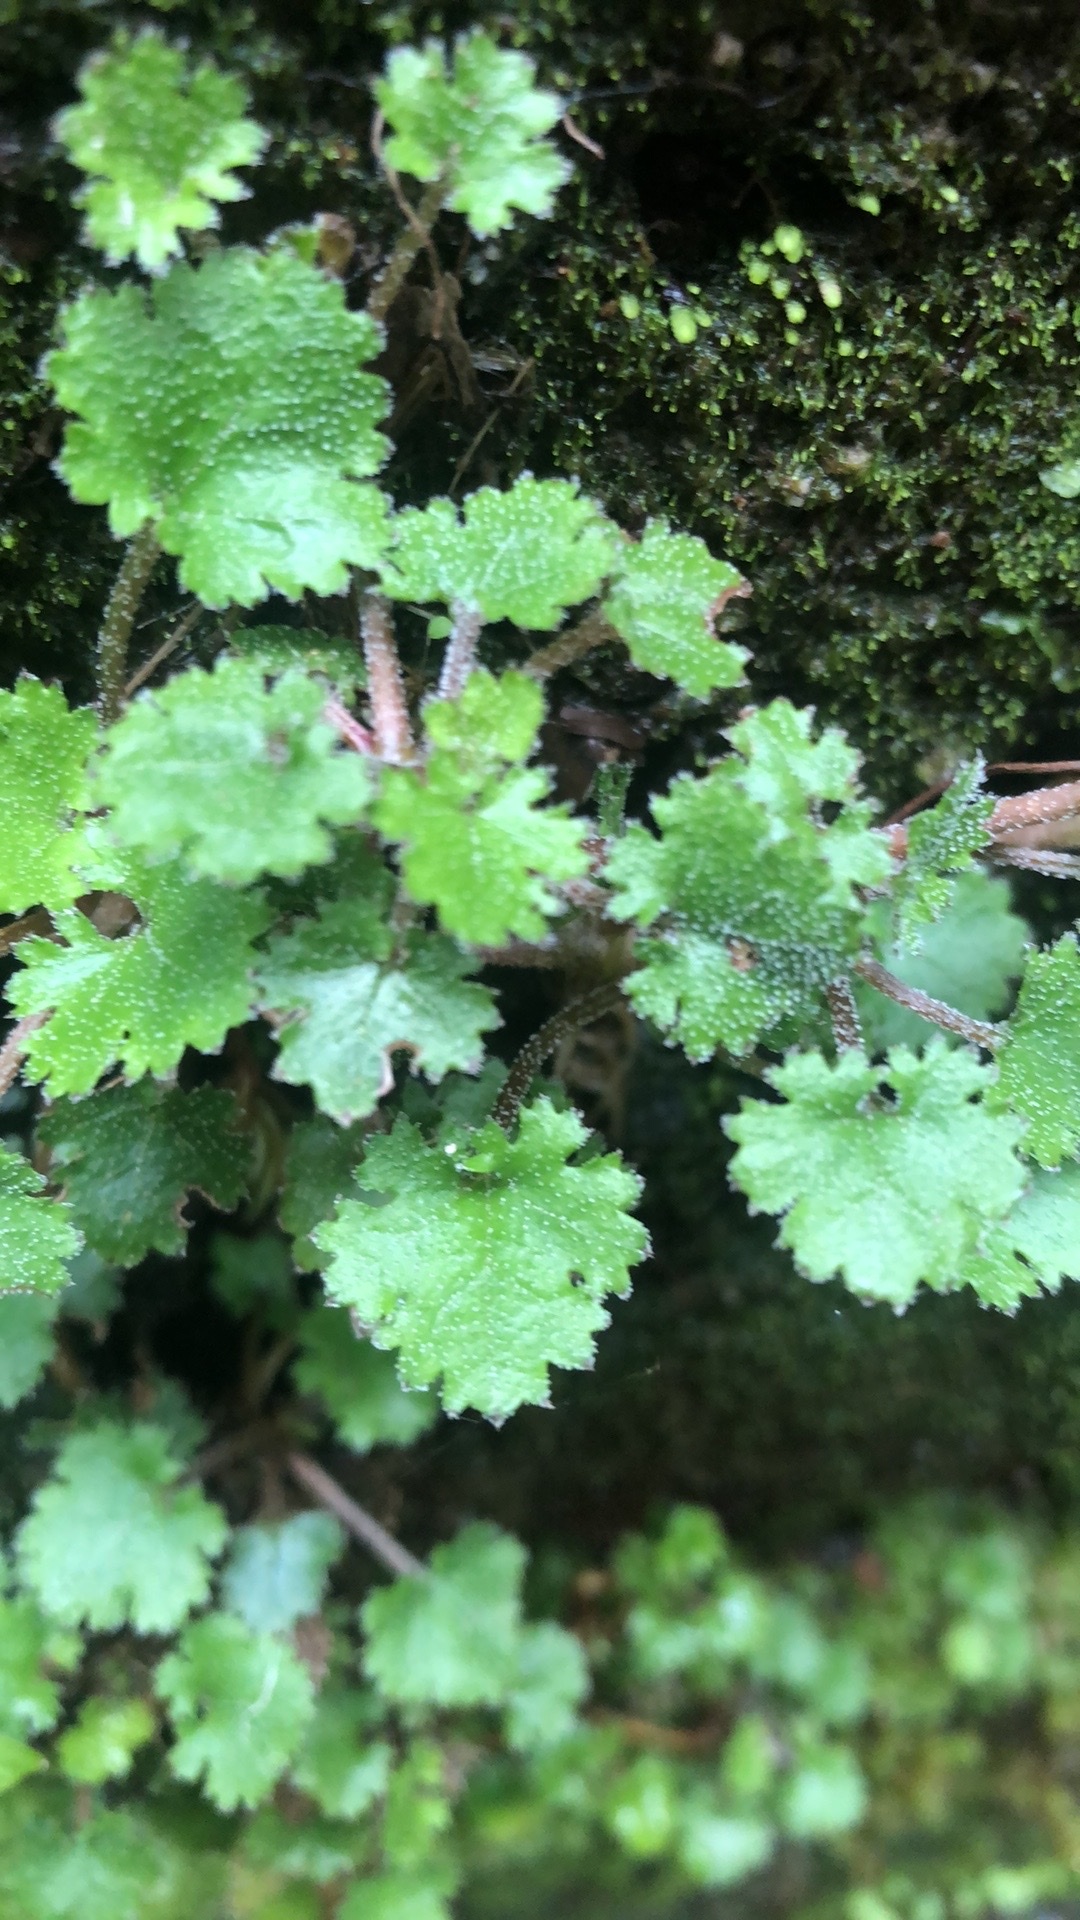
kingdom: Plantae
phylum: Tracheophyta
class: Magnoliopsida
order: Gunnerales
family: Gunneraceae
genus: Gunnera
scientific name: Gunnera monoica
